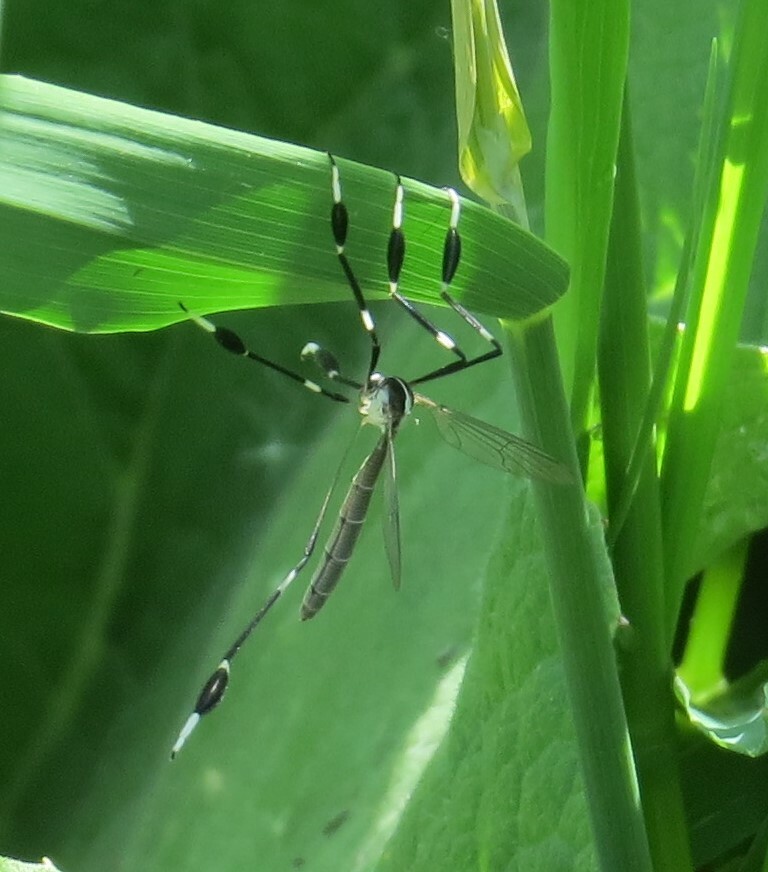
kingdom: Animalia
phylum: Arthropoda
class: Insecta
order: Diptera
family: Ptychopteridae
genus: Bittacomorpha
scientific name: Bittacomorpha clavipes
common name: Eastern phantom crane fly
